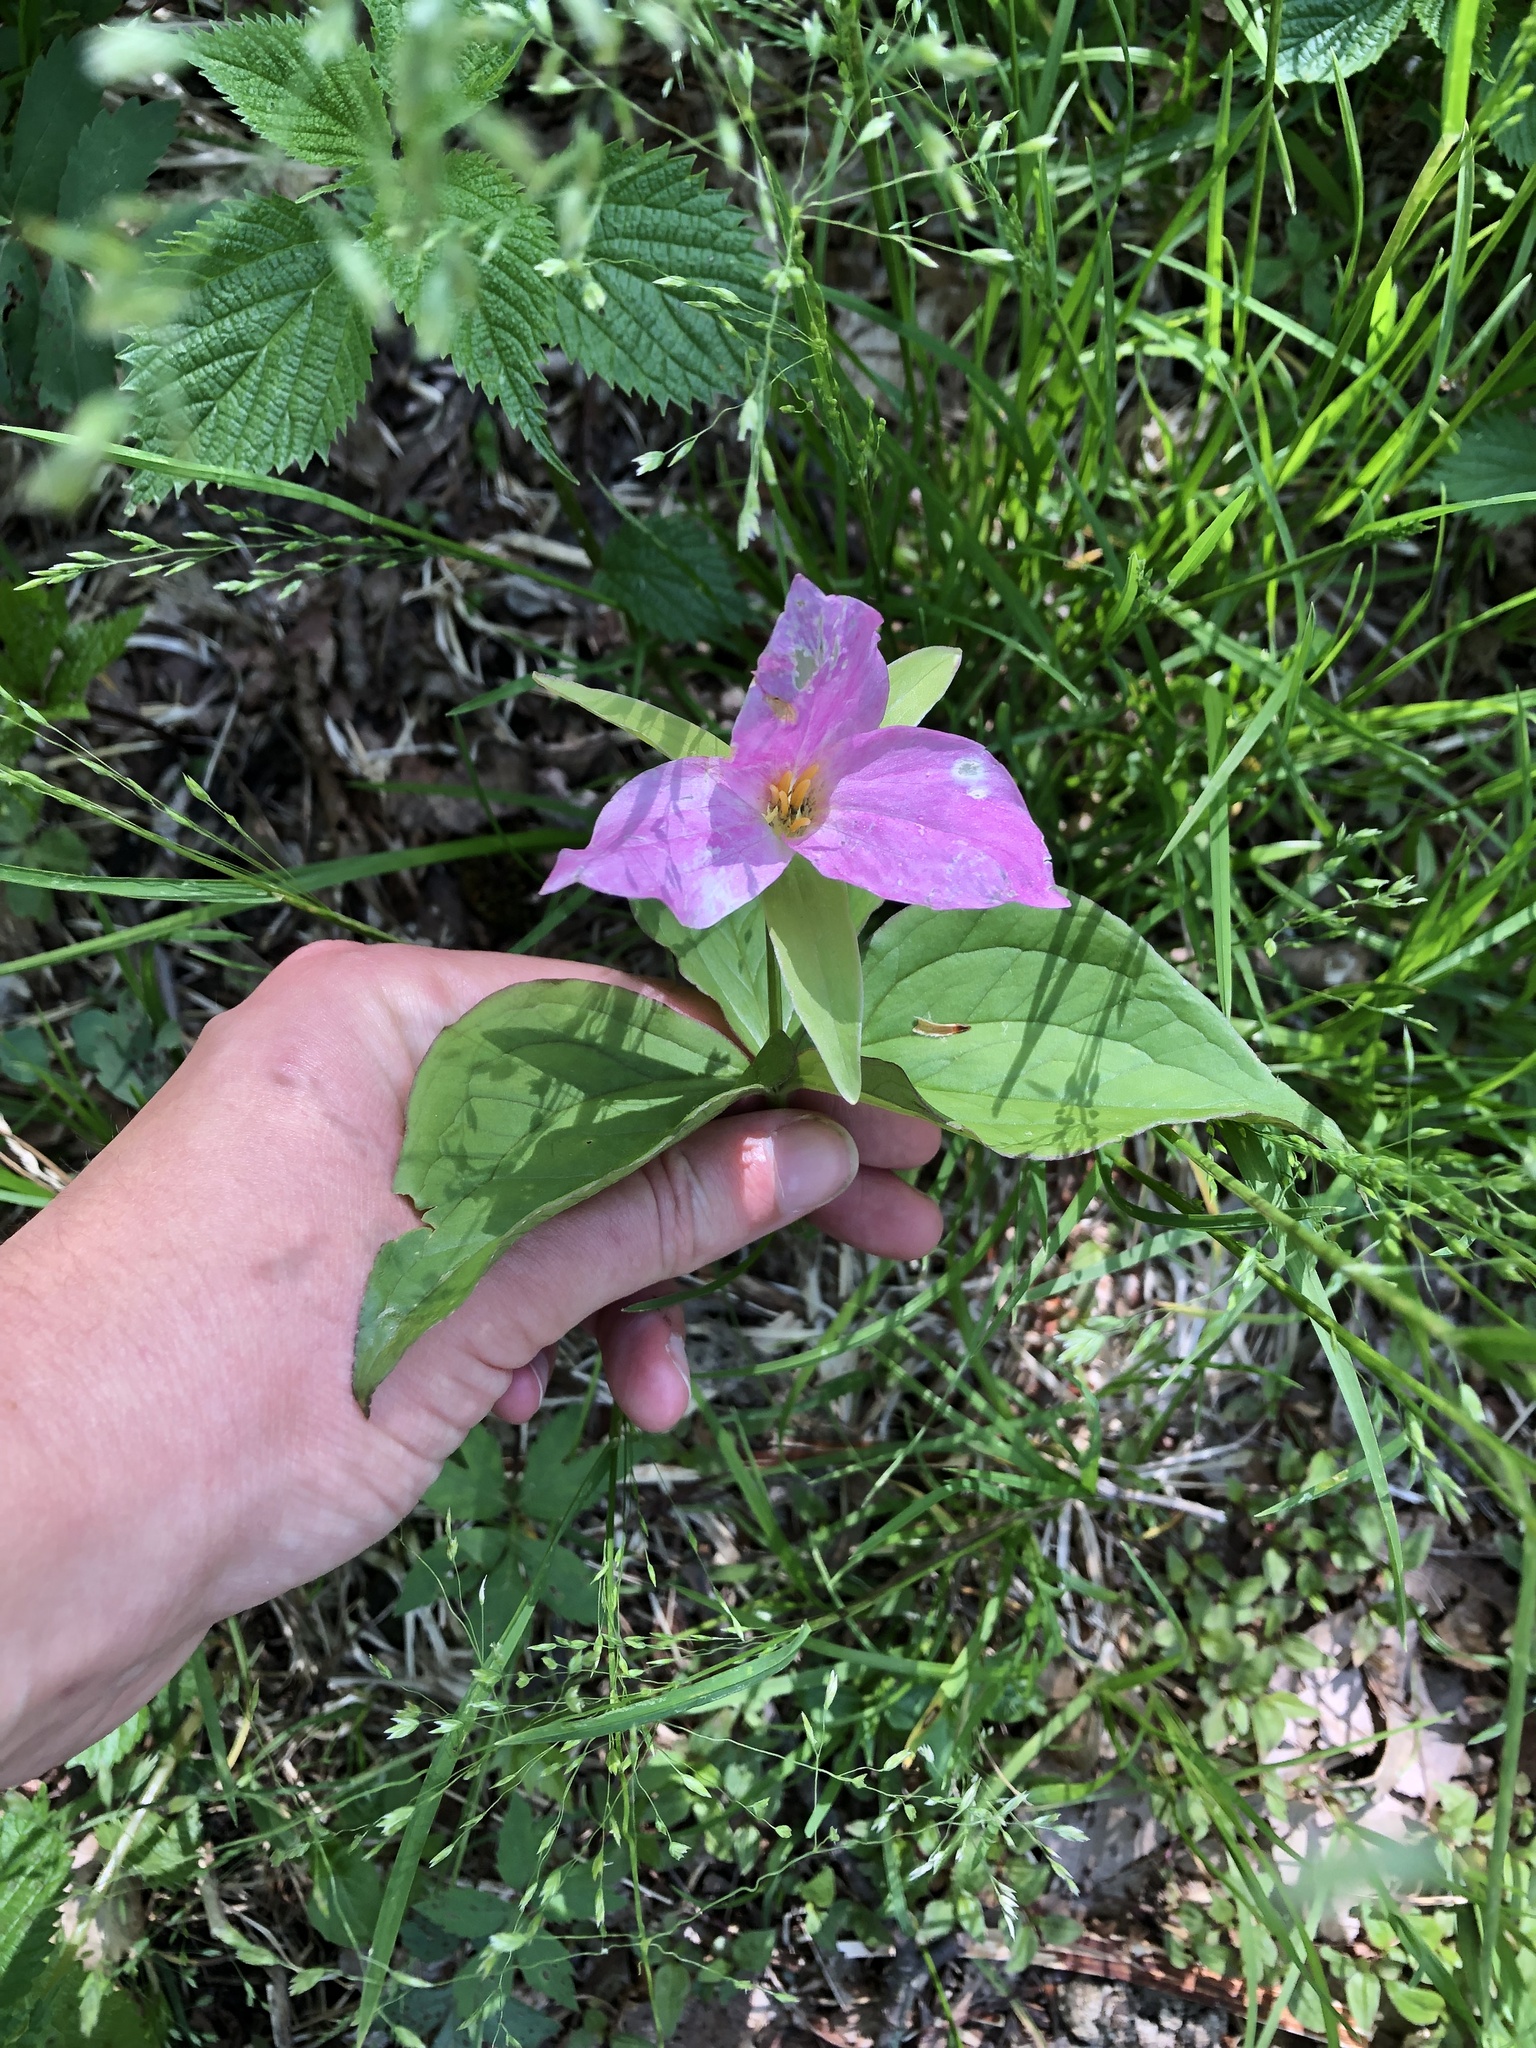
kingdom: Plantae
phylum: Tracheophyta
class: Liliopsida
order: Liliales
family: Melanthiaceae
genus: Trillium
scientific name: Trillium grandiflorum
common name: Great white trillium
